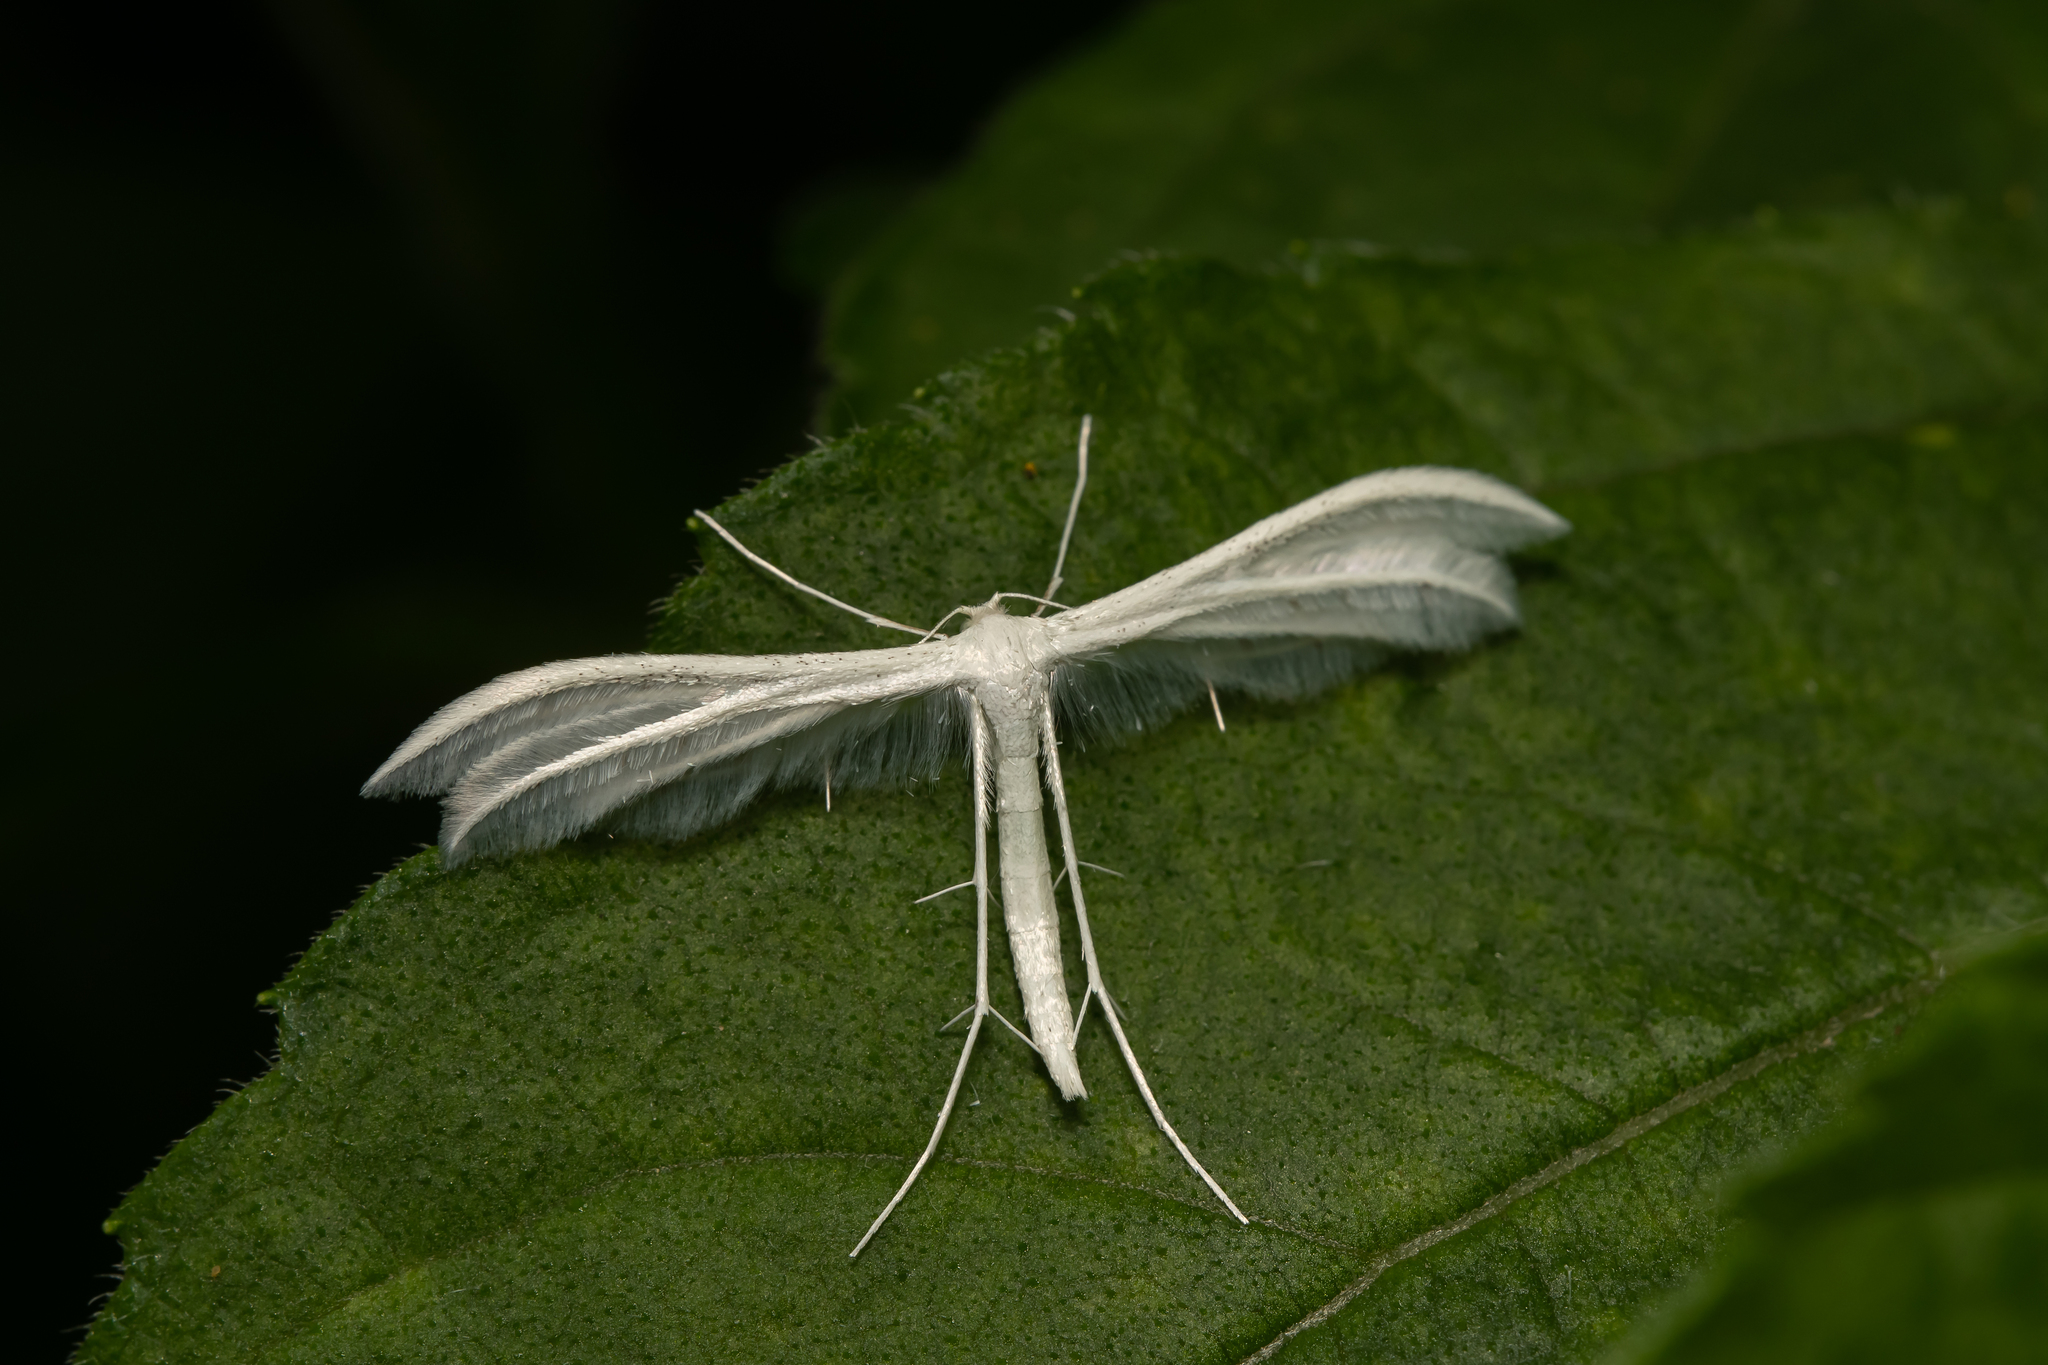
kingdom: Animalia
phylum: Arthropoda
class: Insecta
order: Lepidoptera
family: Pterophoridae
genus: Pterophorus
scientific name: Pterophorus pentadactyla
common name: White plume moth
